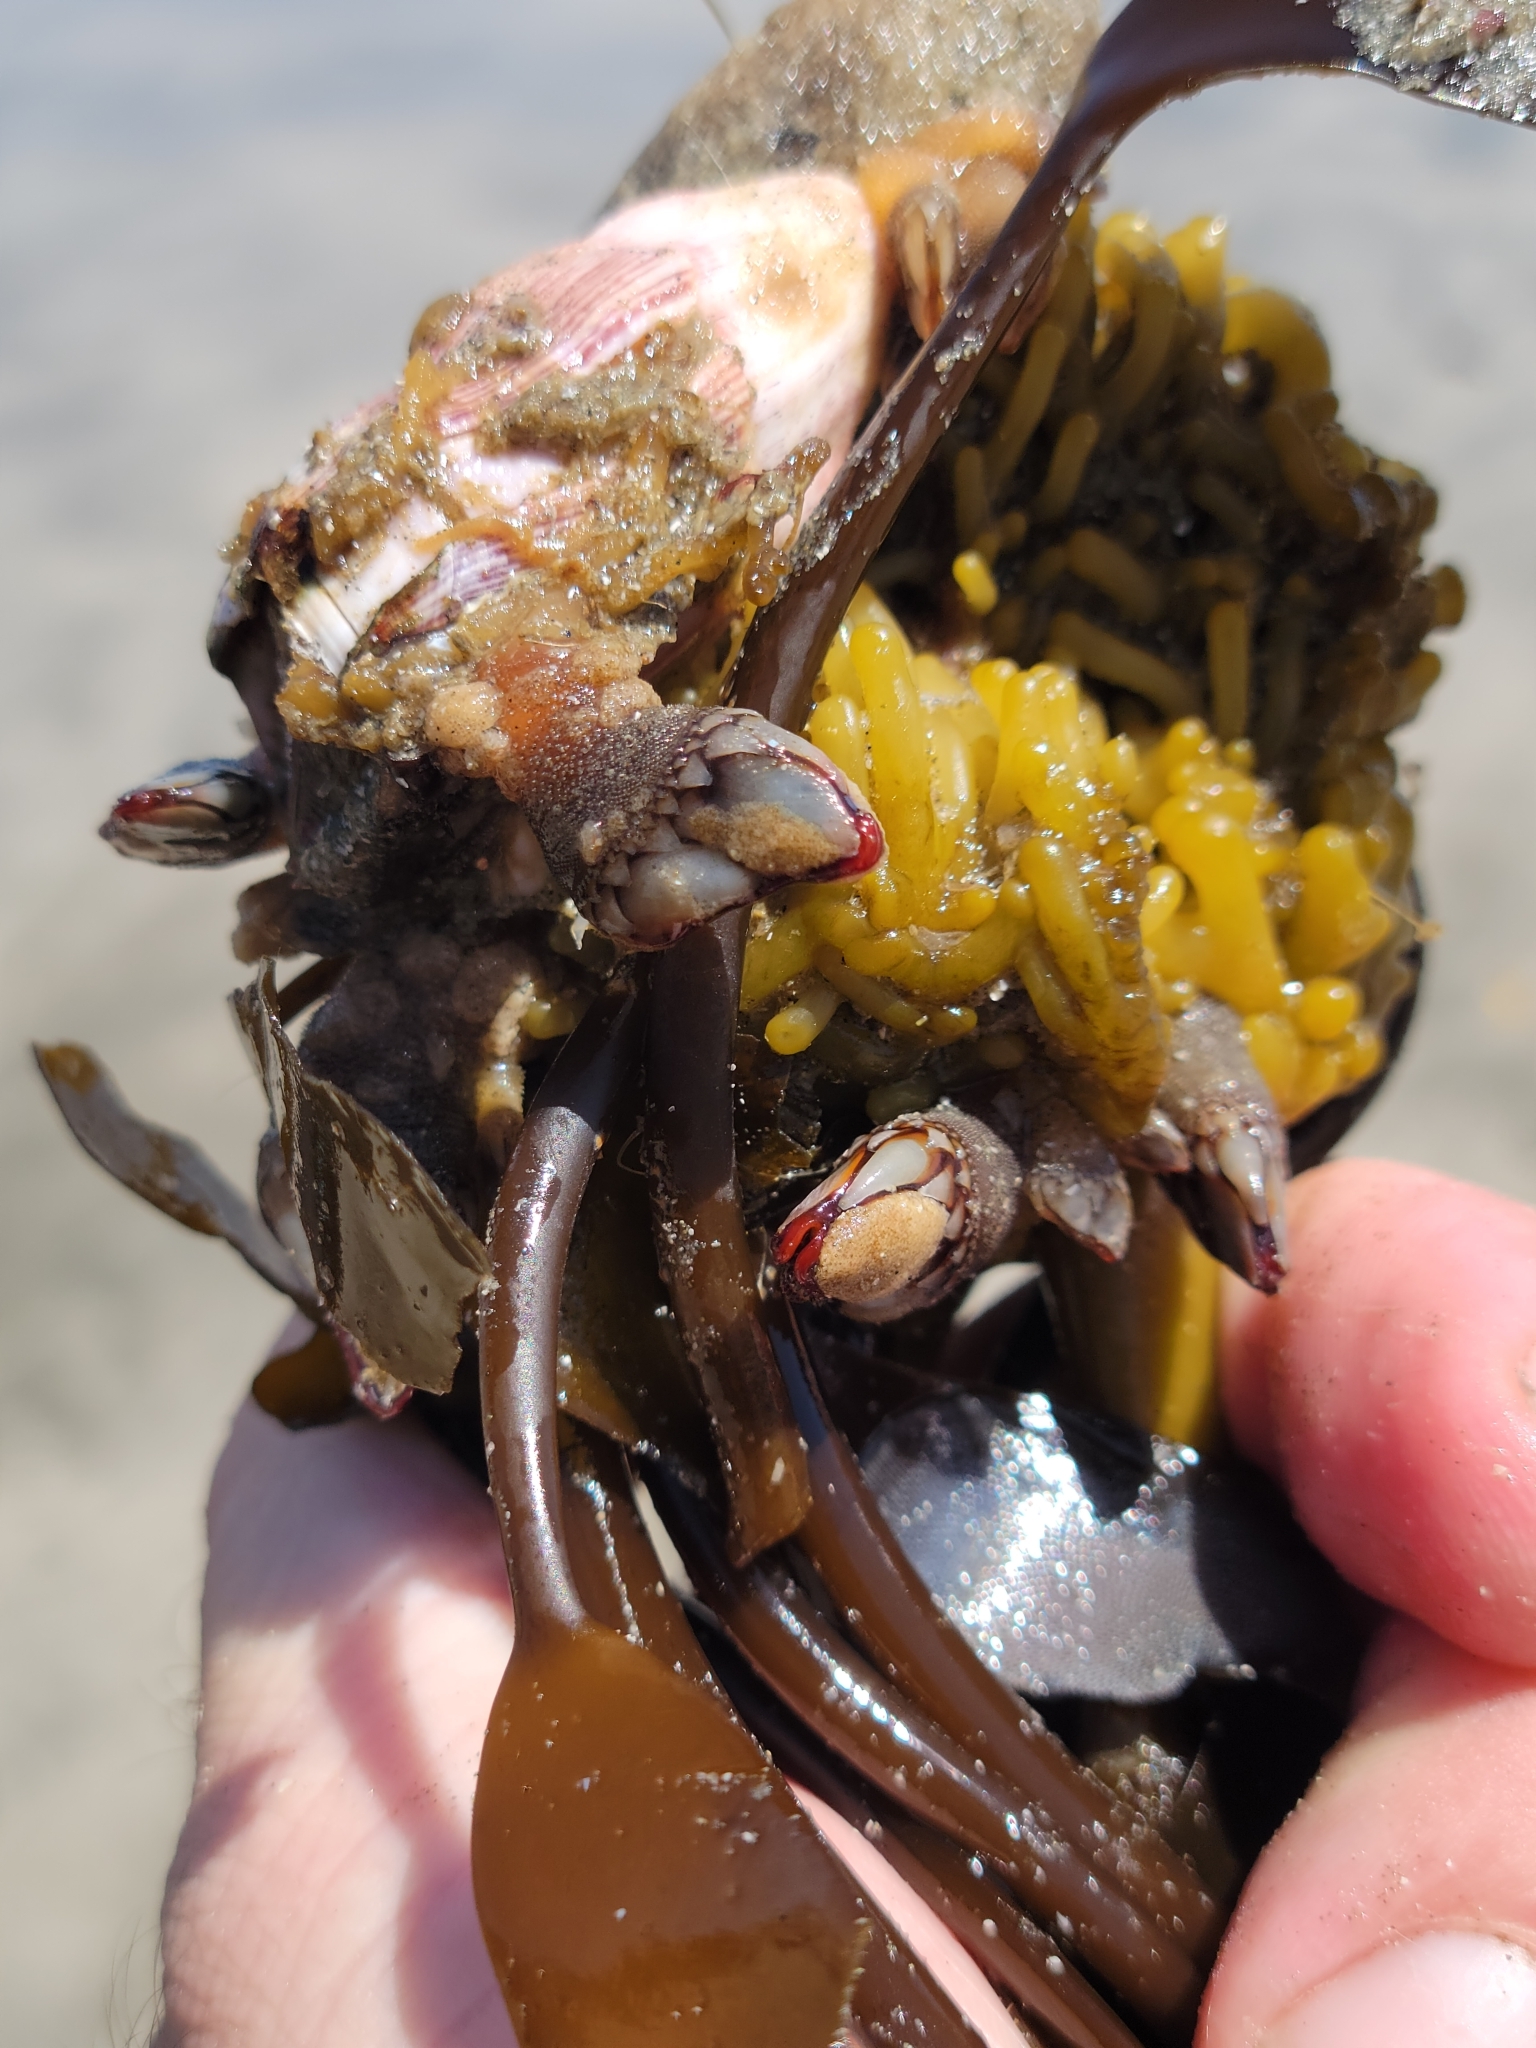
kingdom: Animalia
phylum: Arthropoda
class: Maxillopoda
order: Sessilia
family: Balanidae
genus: Megabalanus
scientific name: Megabalanus californicus
